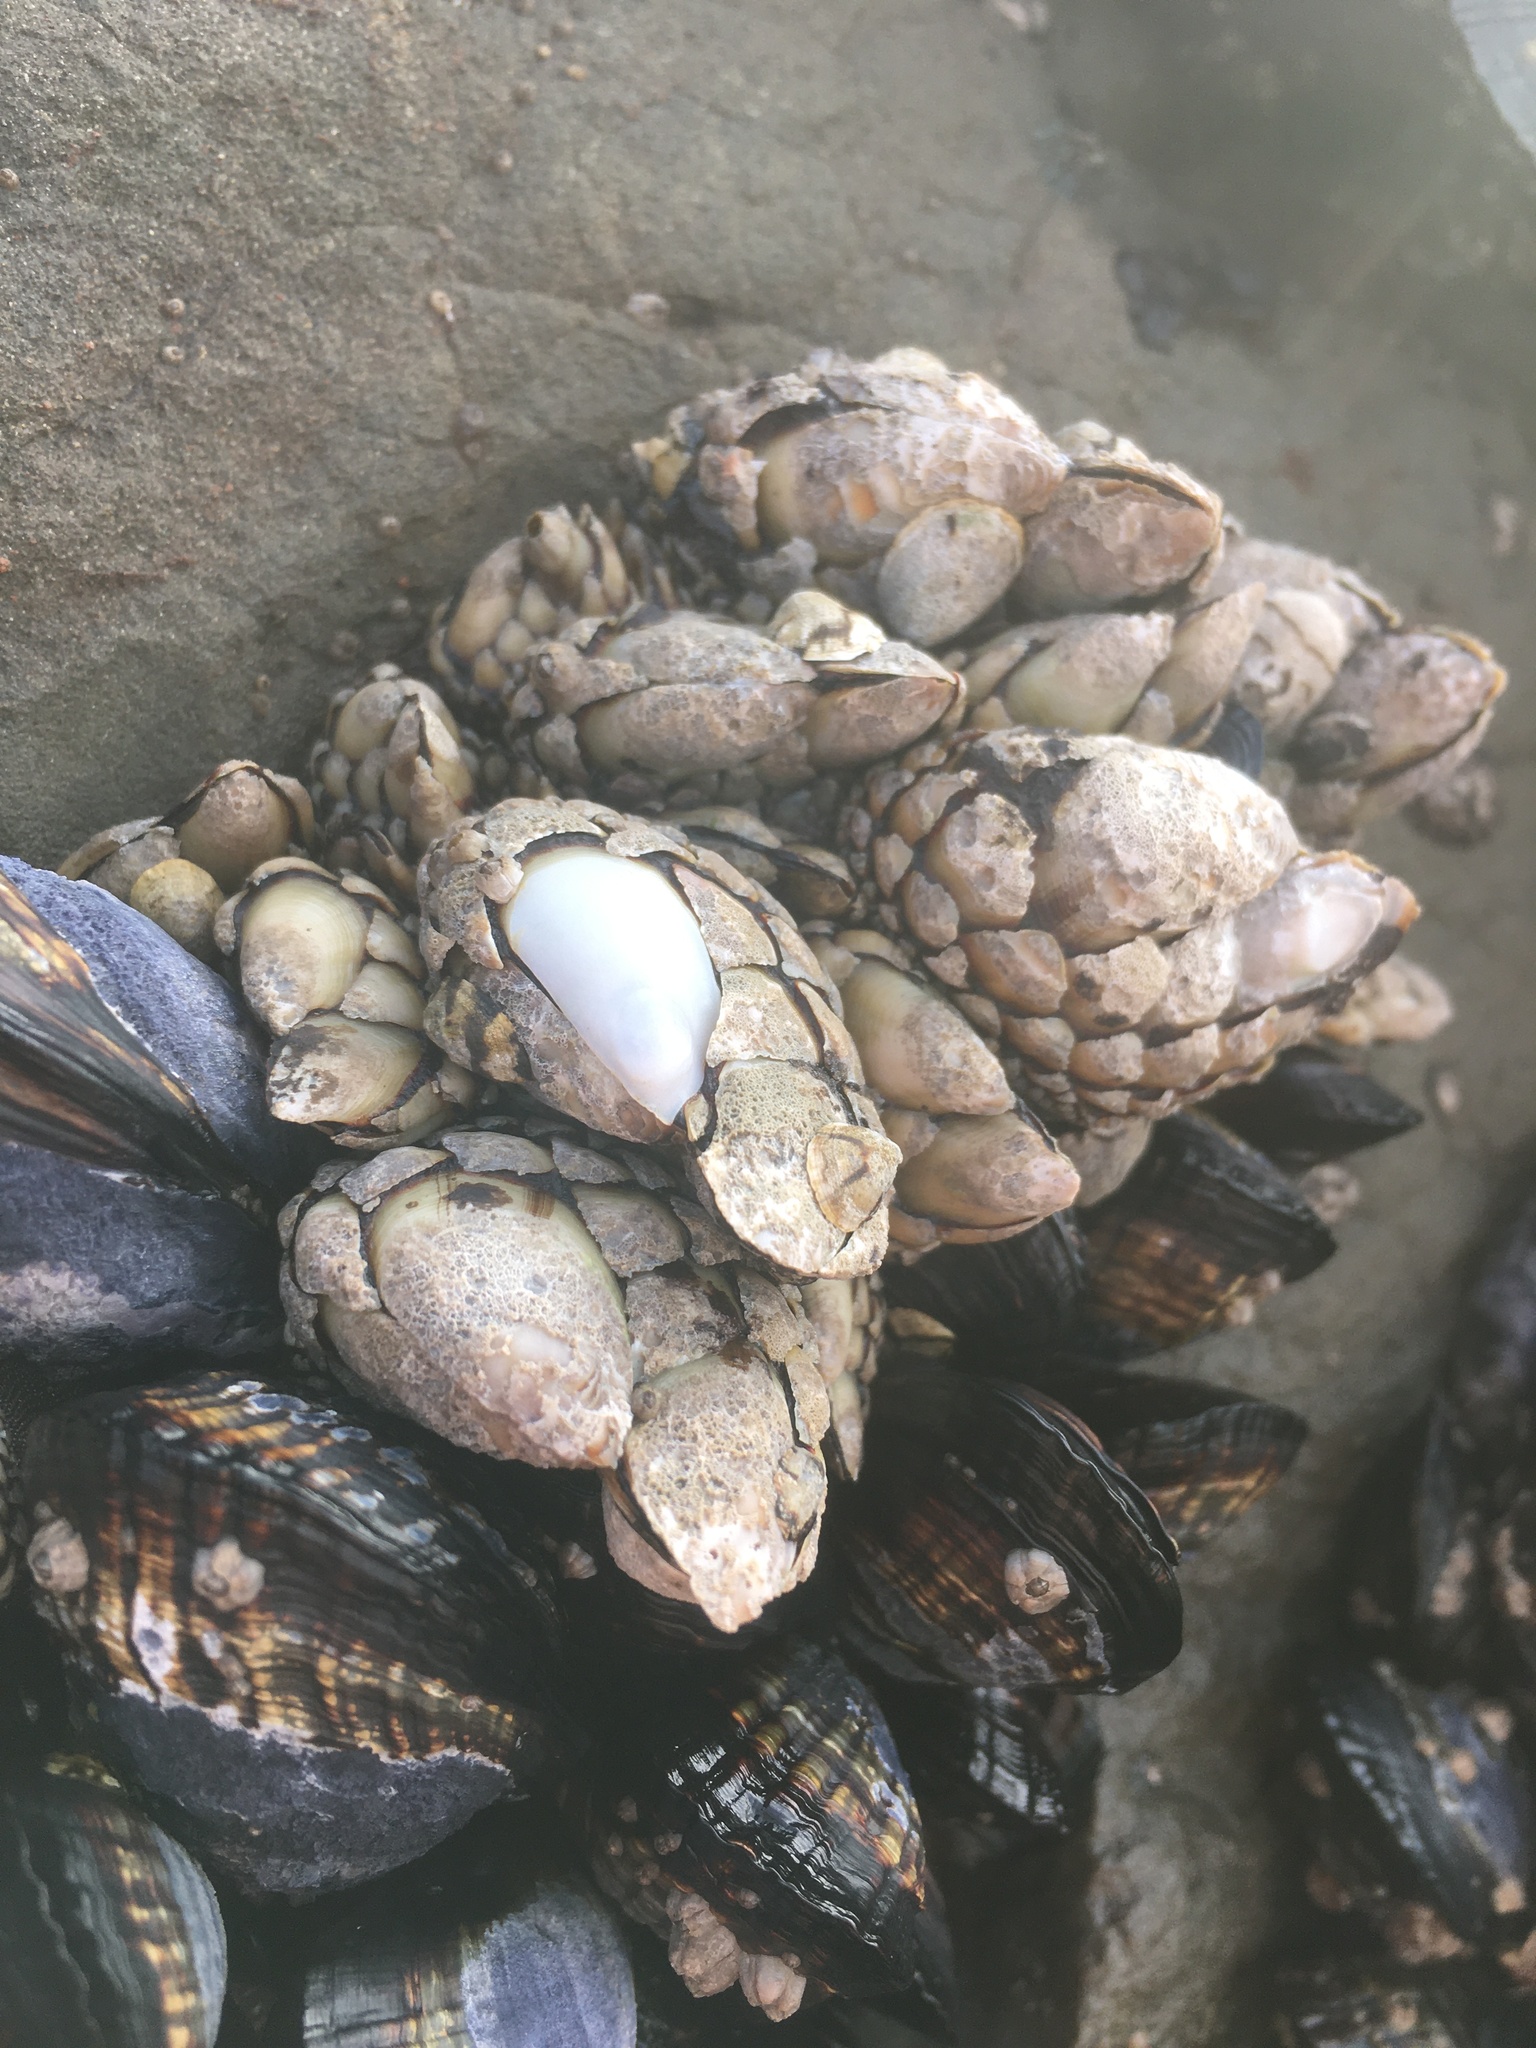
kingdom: Animalia
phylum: Arthropoda
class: Maxillopoda
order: Pedunculata
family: Pollicipedidae
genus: Pollicipes
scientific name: Pollicipes polymerus
